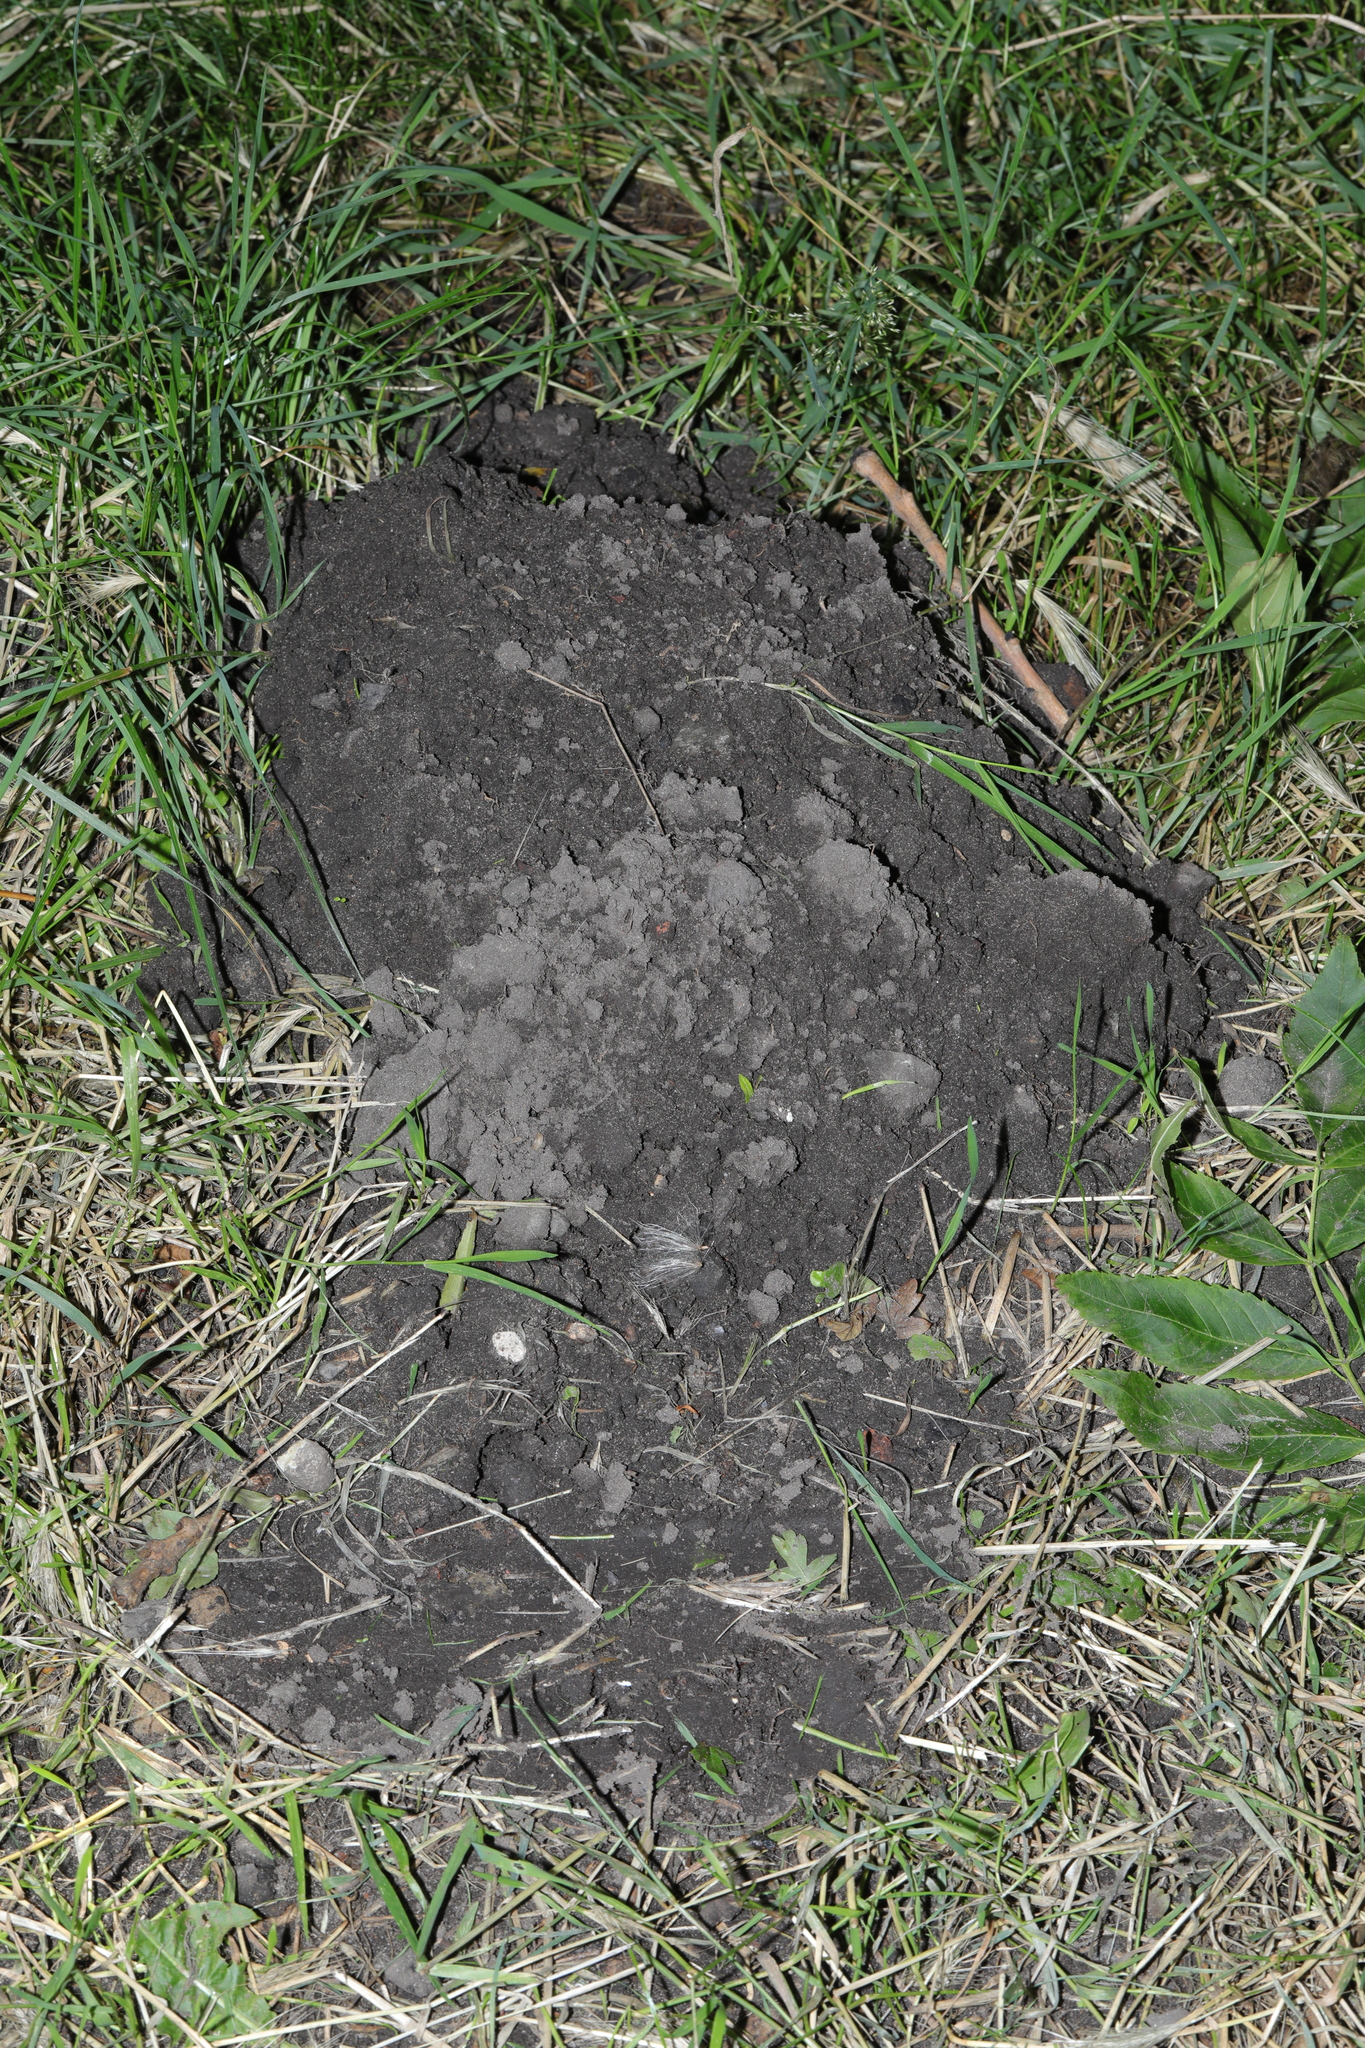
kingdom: Animalia
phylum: Chordata
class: Mammalia
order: Soricomorpha
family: Talpidae
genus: Talpa
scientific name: Talpa europaea
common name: European mole
